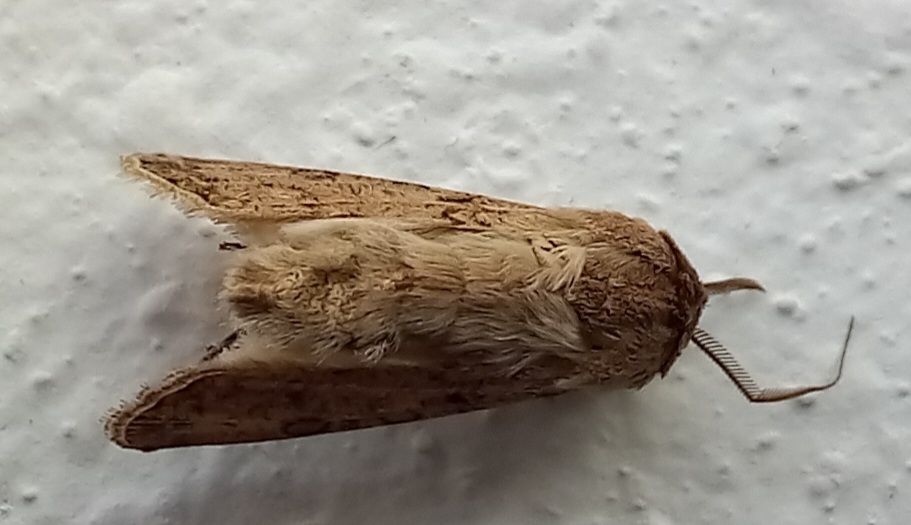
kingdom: Animalia
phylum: Arthropoda
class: Insecta
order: Lepidoptera
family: Noctuidae
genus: Agrotis
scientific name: Agrotis segetum
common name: Turnip moth
